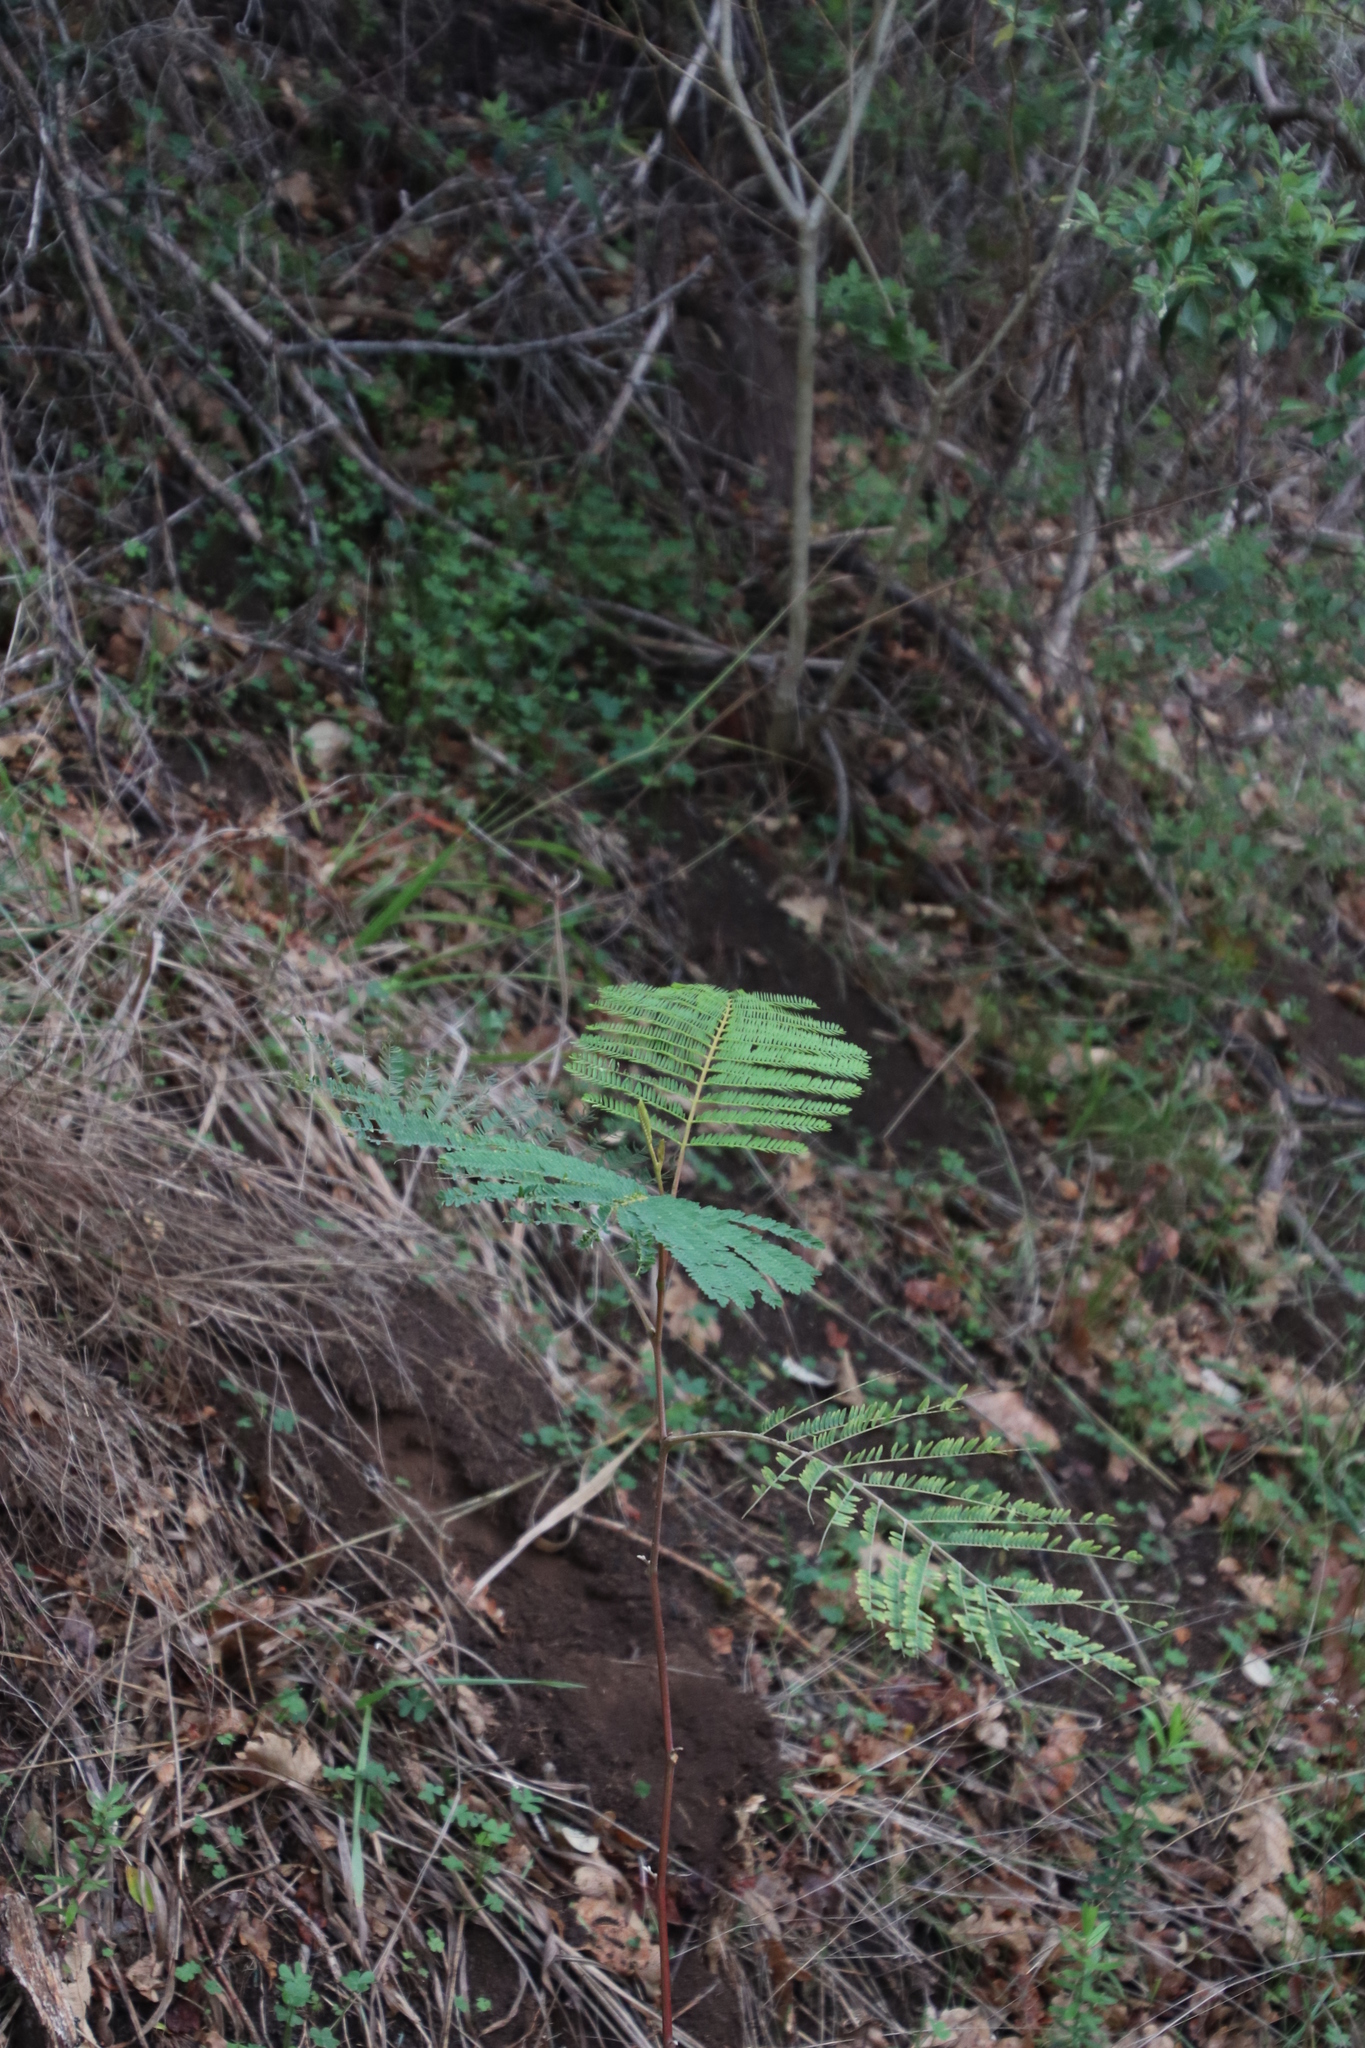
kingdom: Plantae
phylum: Tracheophyta
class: Magnoliopsida
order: Fabales
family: Fabaceae
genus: Paraserianthes
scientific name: Paraserianthes lophantha
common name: Plume albizia
